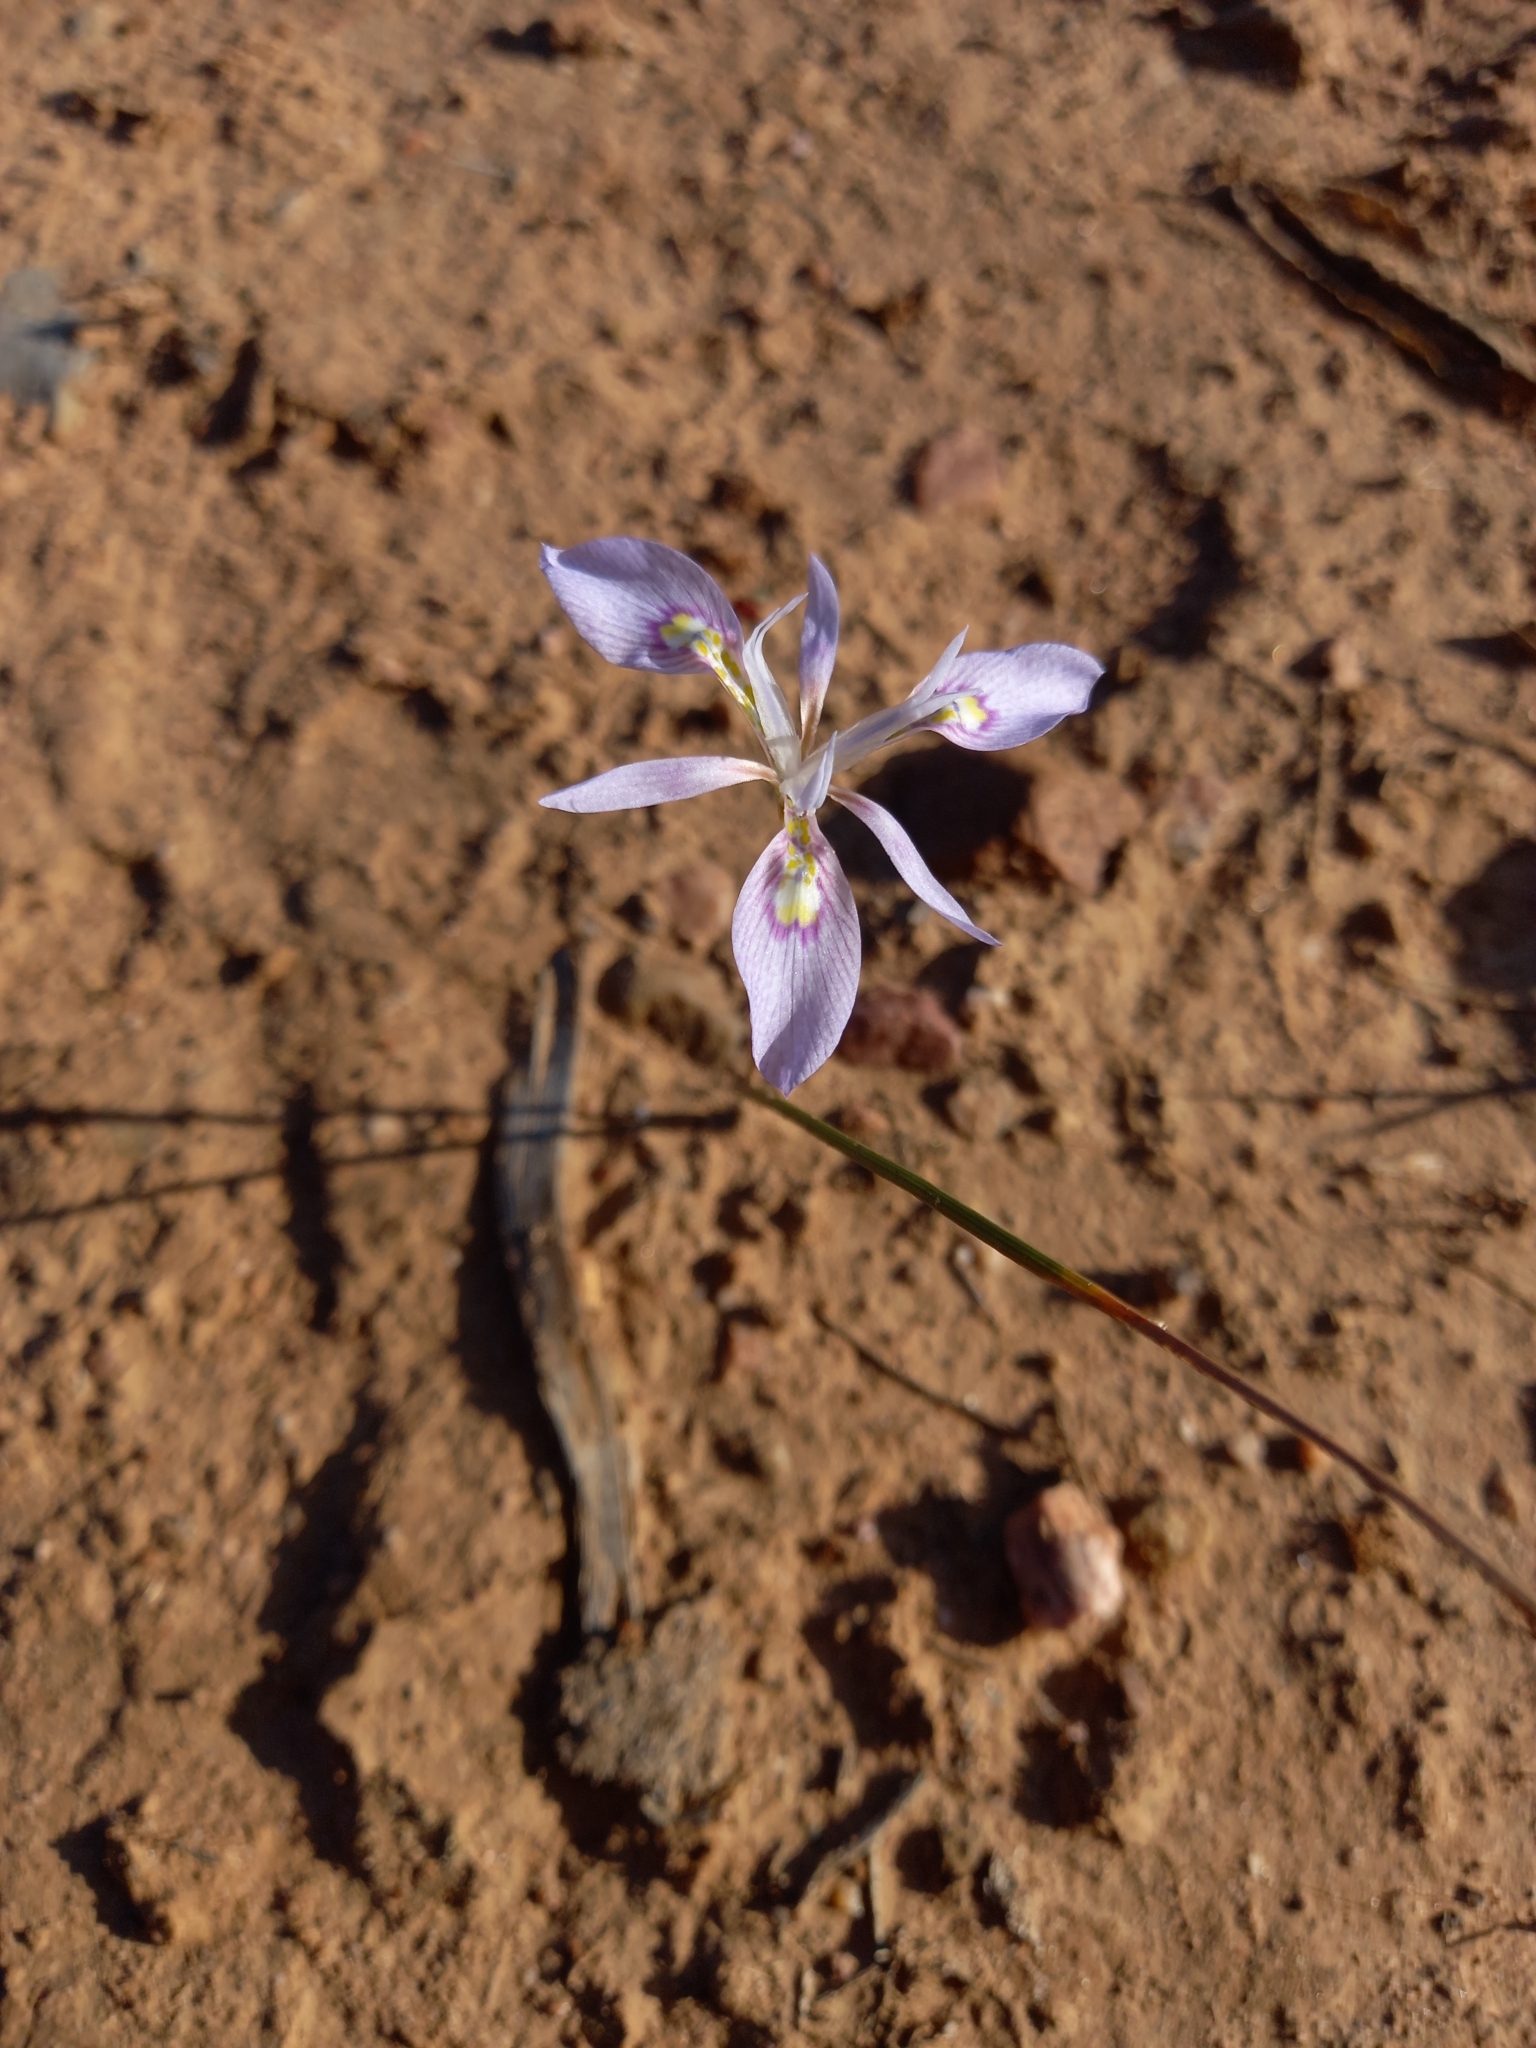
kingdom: Plantae
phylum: Tracheophyta
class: Liliopsida
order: Asparagales
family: Iridaceae
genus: Moraea
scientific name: Moraea elliotii
